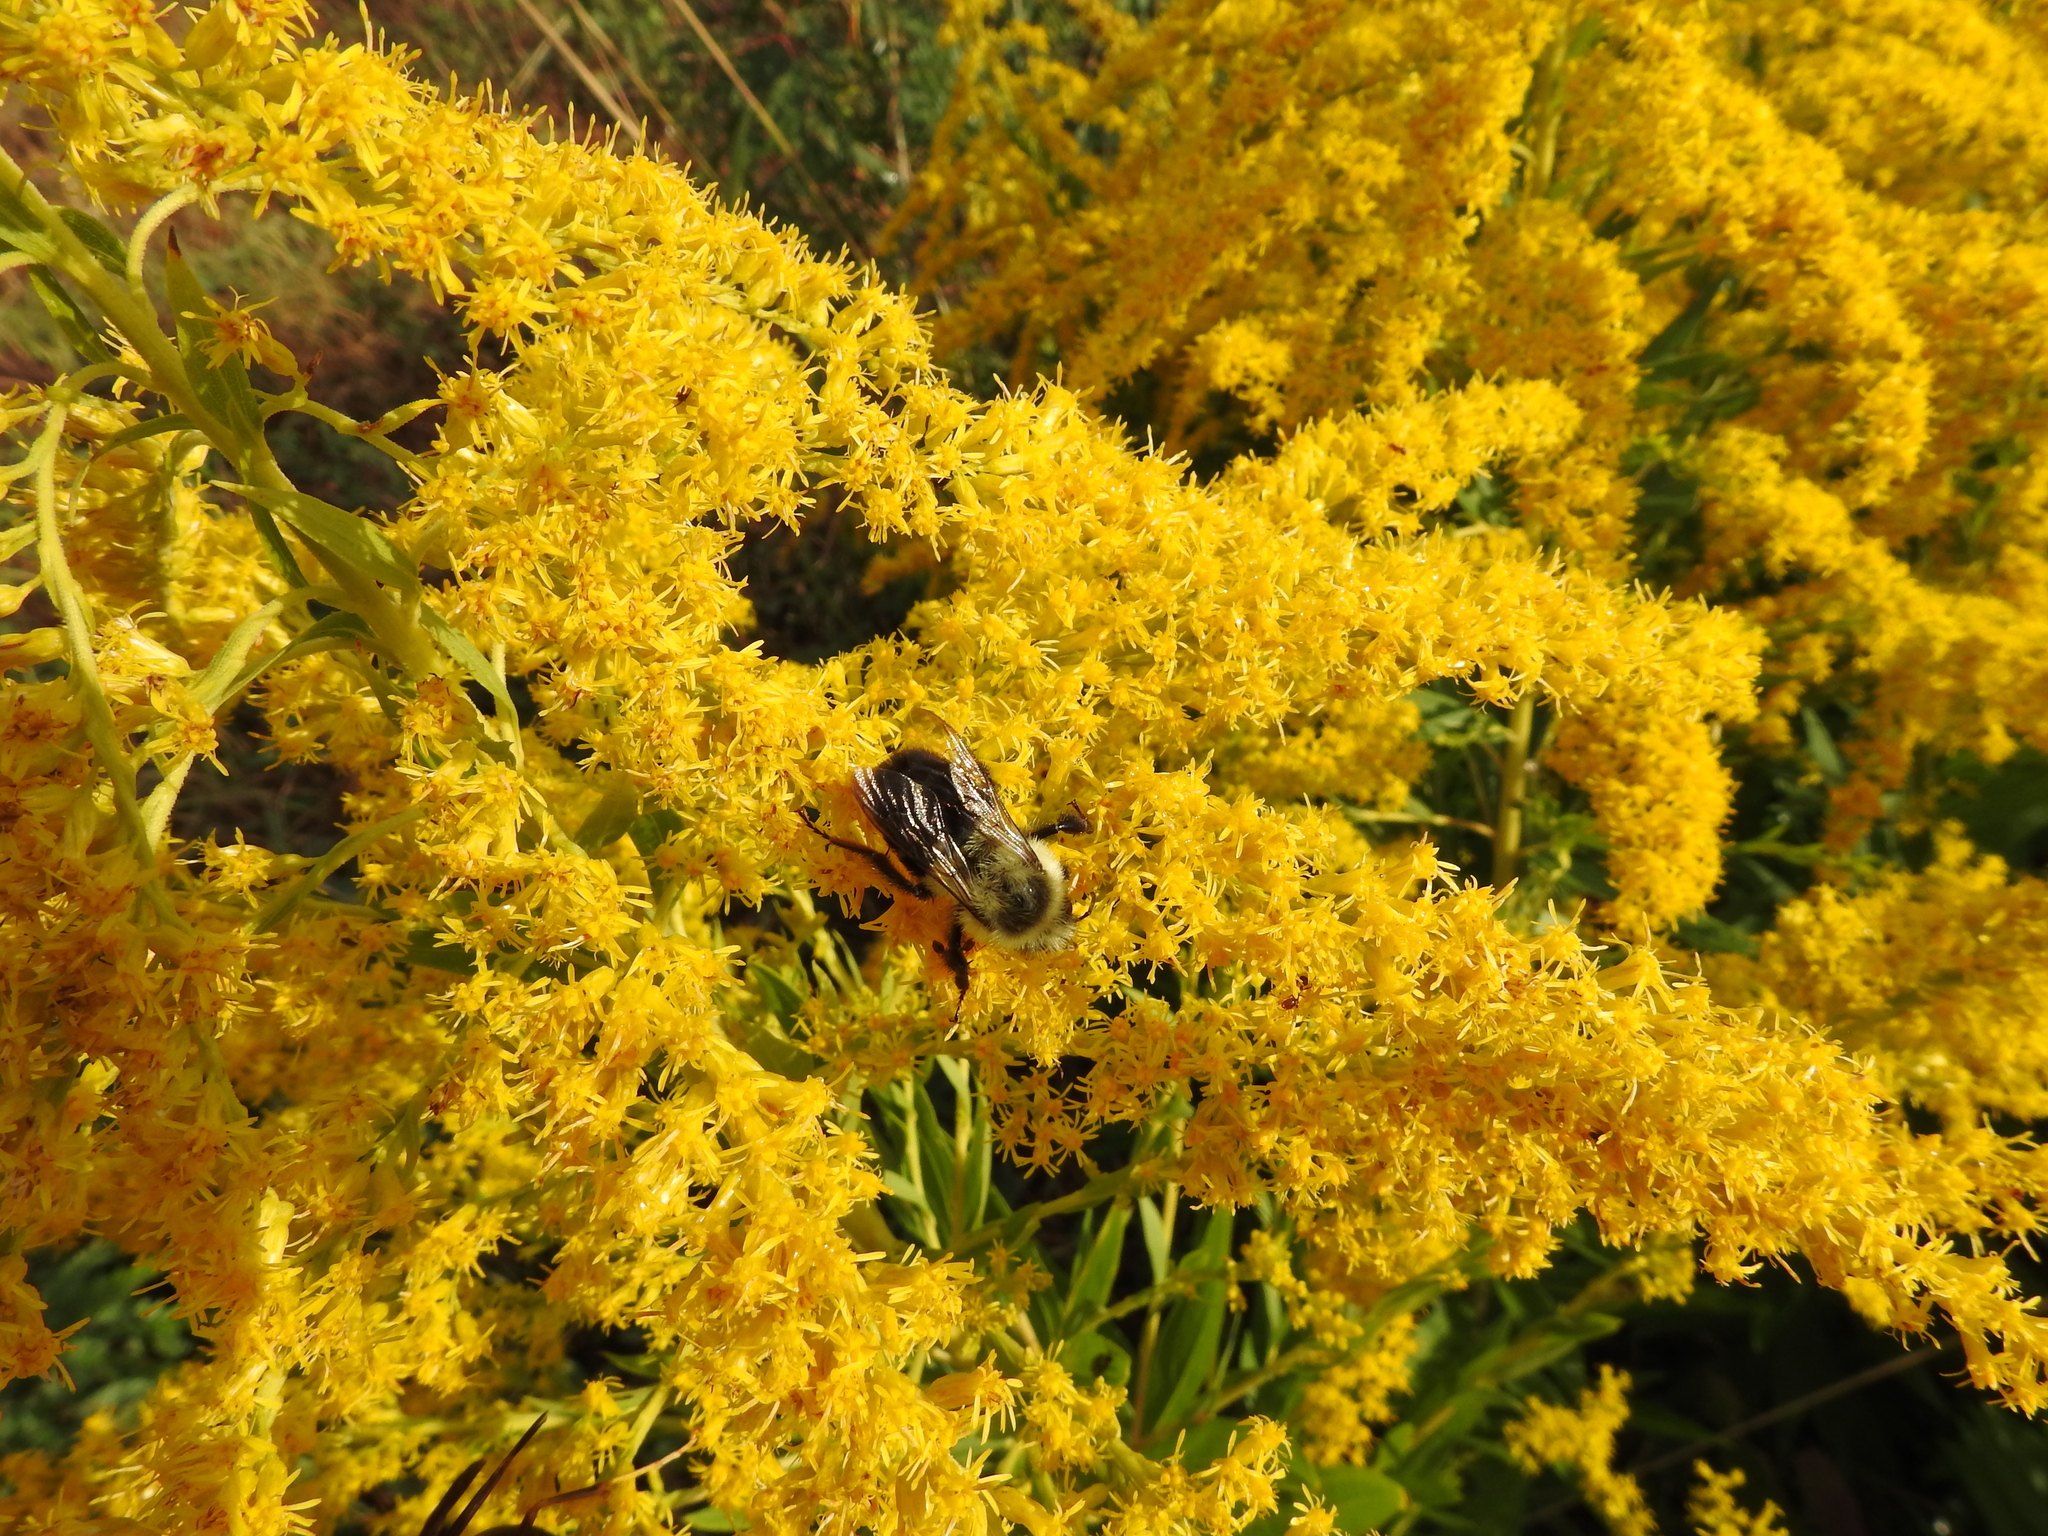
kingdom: Animalia
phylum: Arthropoda
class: Insecta
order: Hymenoptera
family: Apidae
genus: Bombus
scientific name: Bombus impatiens
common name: Common eastern bumble bee
